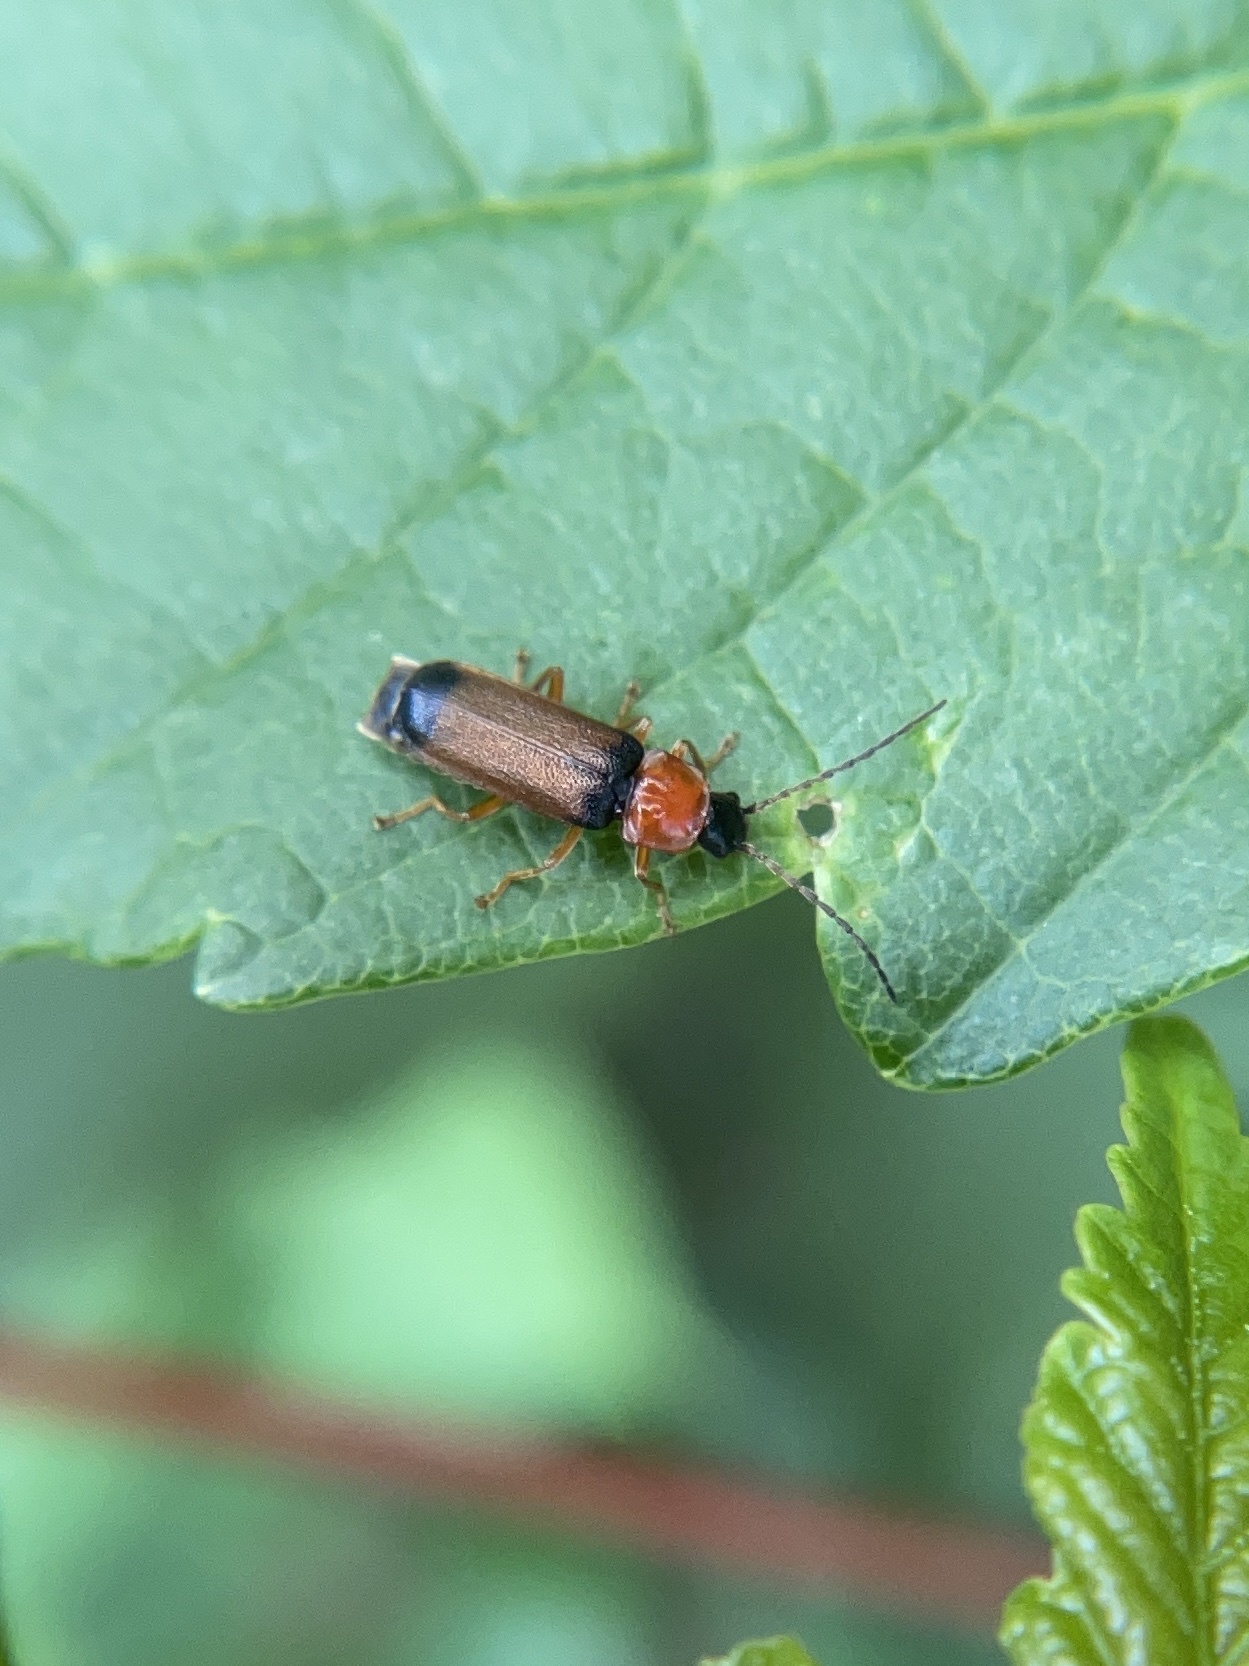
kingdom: Animalia
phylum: Arthropoda
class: Insecta
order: Coleoptera
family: Cantharidae
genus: Cratosilis
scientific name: Cratosilis laeta
